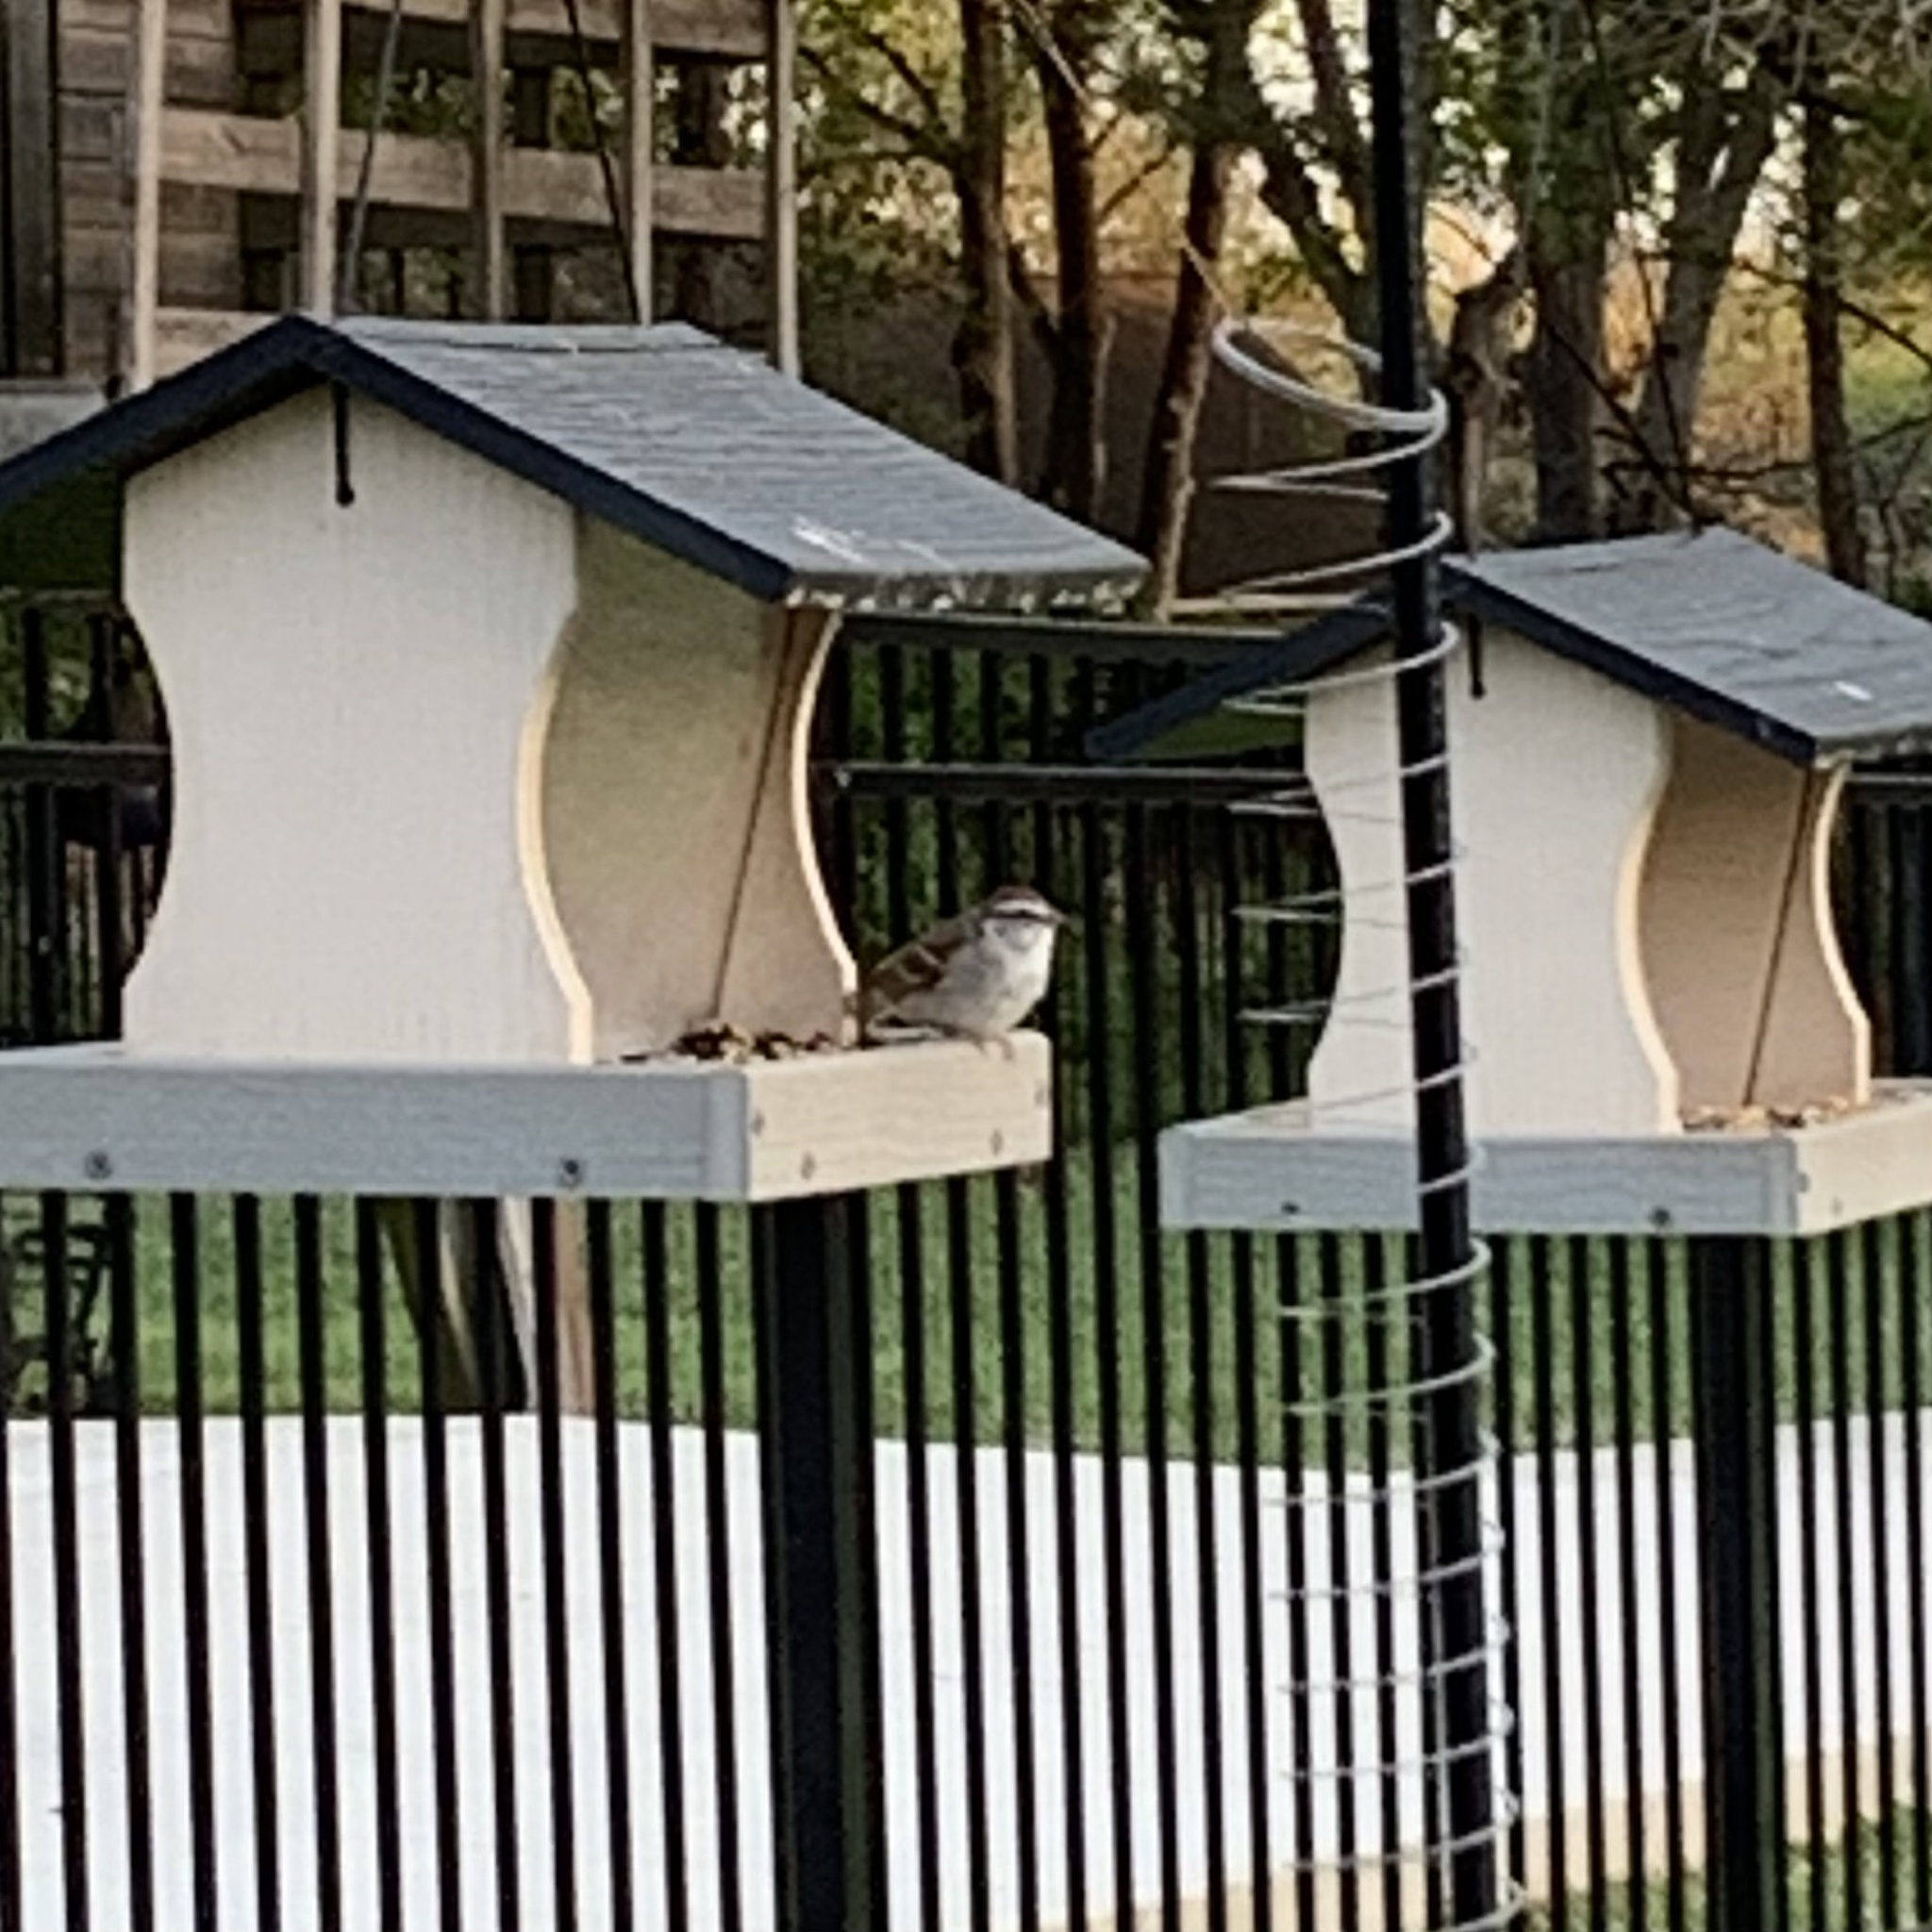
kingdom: Animalia
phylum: Chordata
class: Aves
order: Passeriformes
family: Passerellidae
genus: Spizella
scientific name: Spizella passerina
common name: Chipping sparrow
